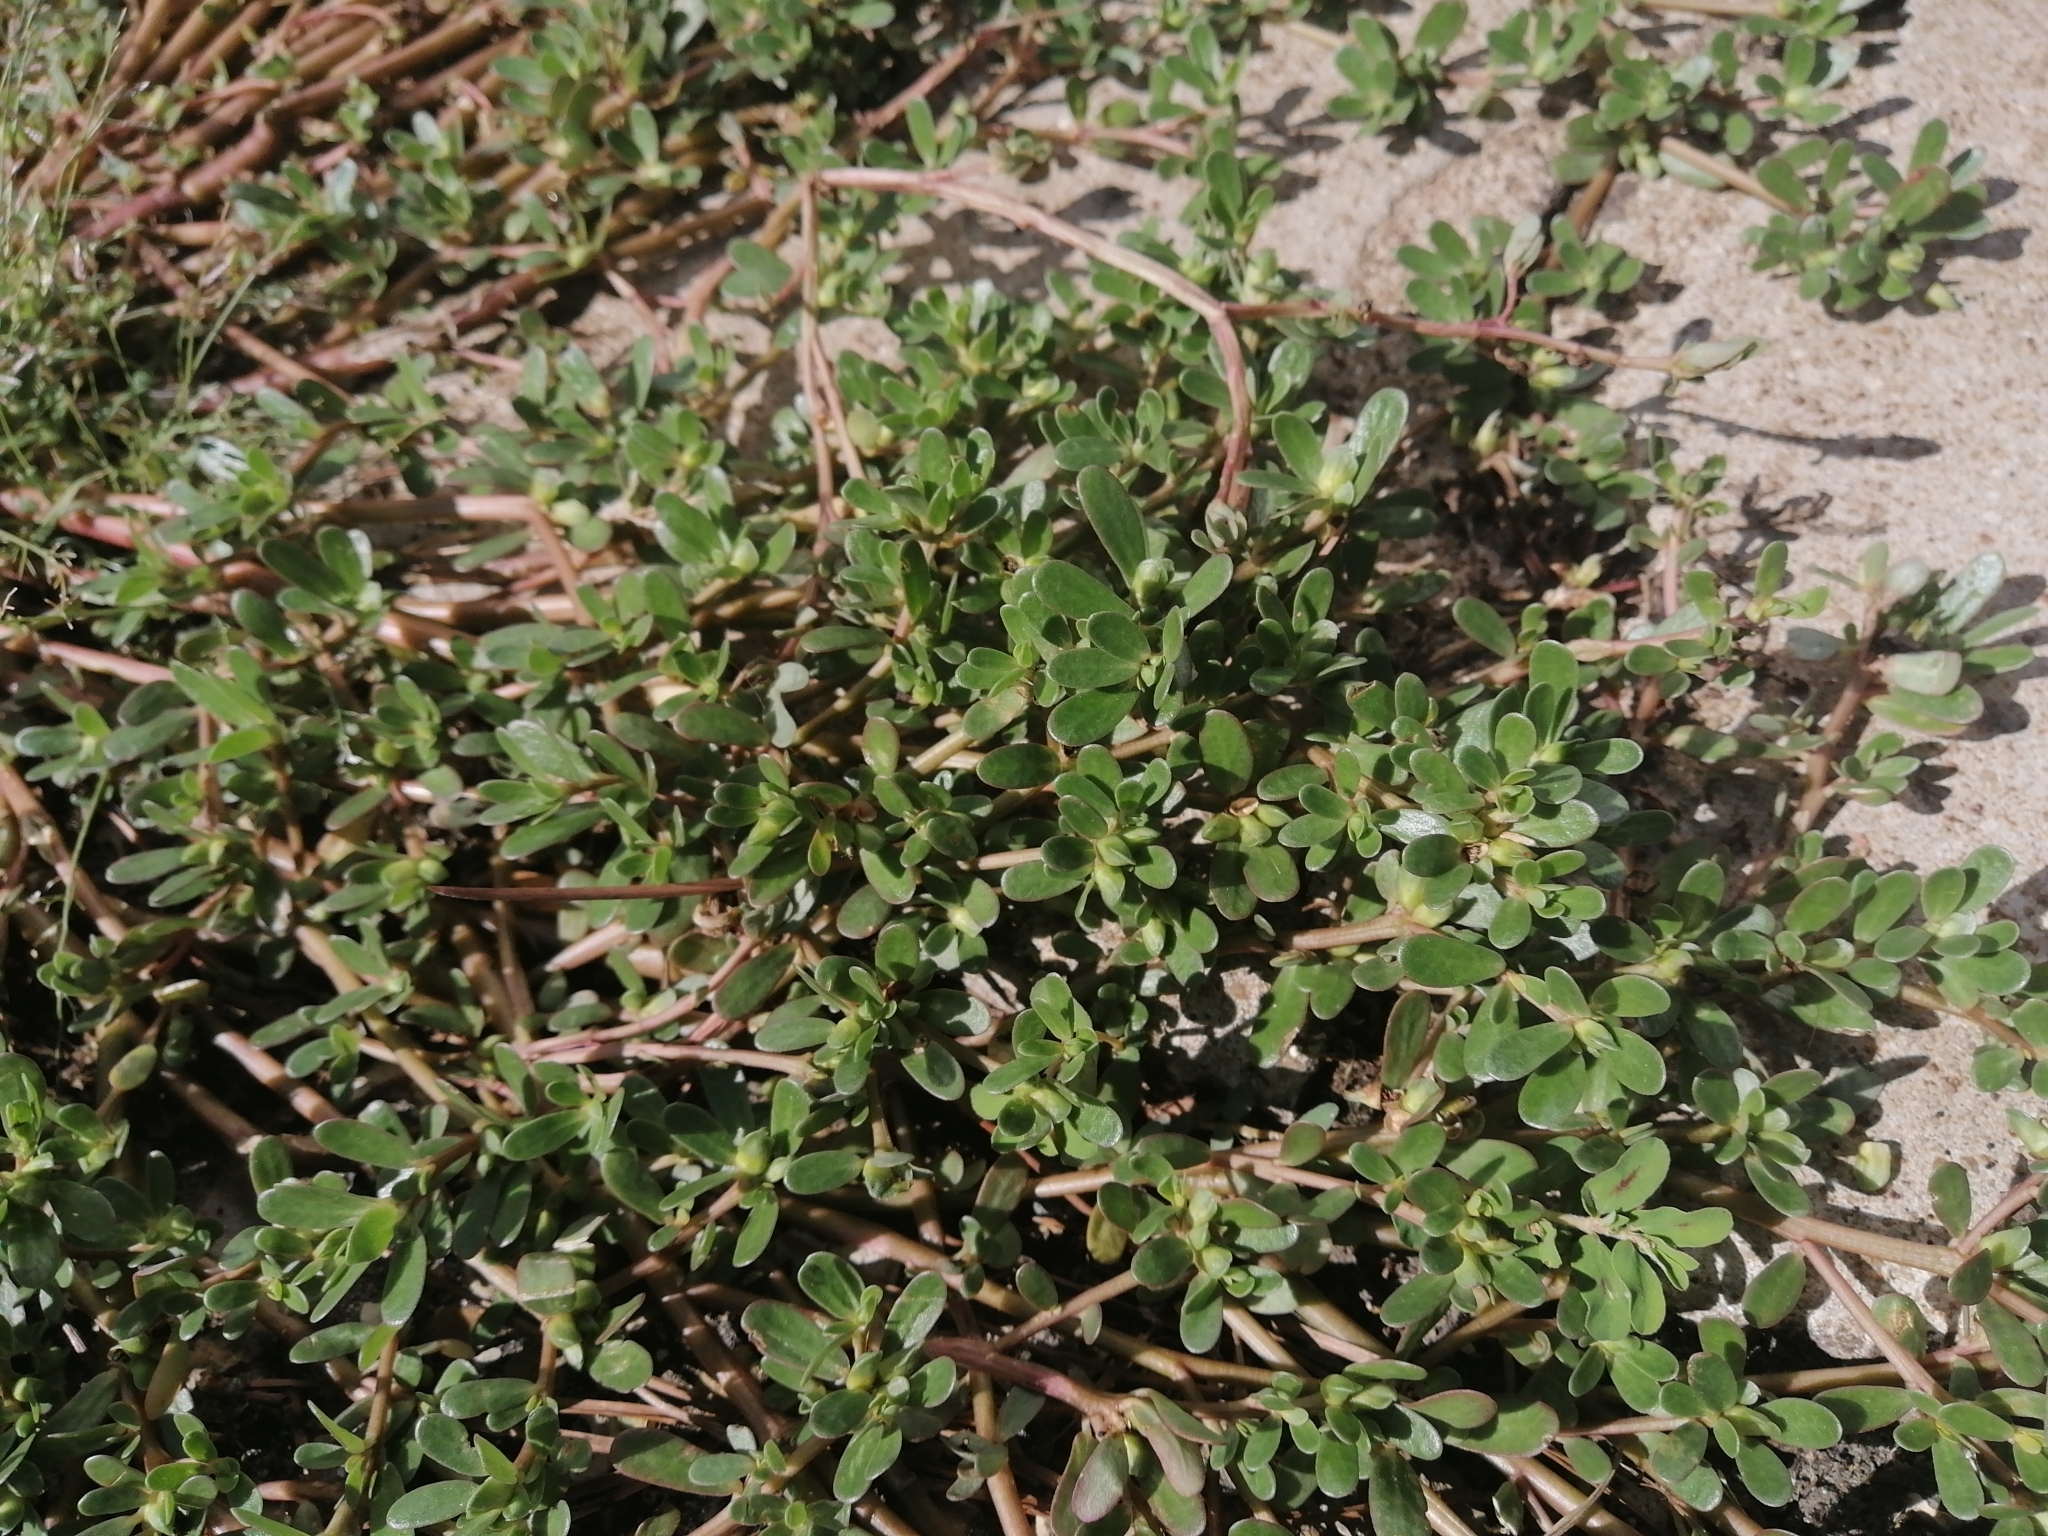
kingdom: Plantae
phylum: Tracheophyta
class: Magnoliopsida
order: Caryophyllales
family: Portulacaceae
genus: Portulaca
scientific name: Portulaca oleracea
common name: Common purslane
